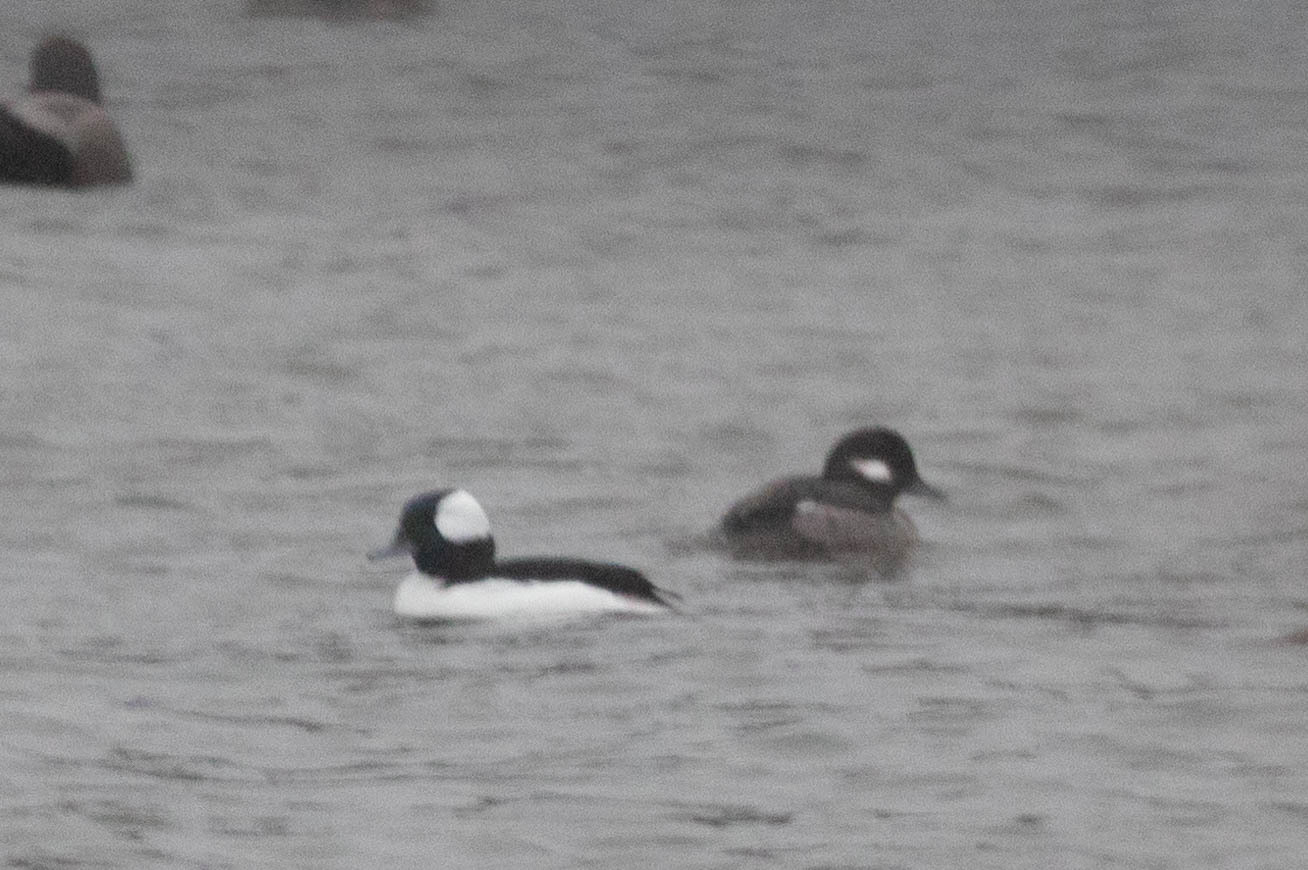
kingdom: Animalia
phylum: Chordata
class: Aves
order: Anseriformes
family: Anatidae
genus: Bucephala
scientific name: Bucephala albeola
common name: Bufflehead
